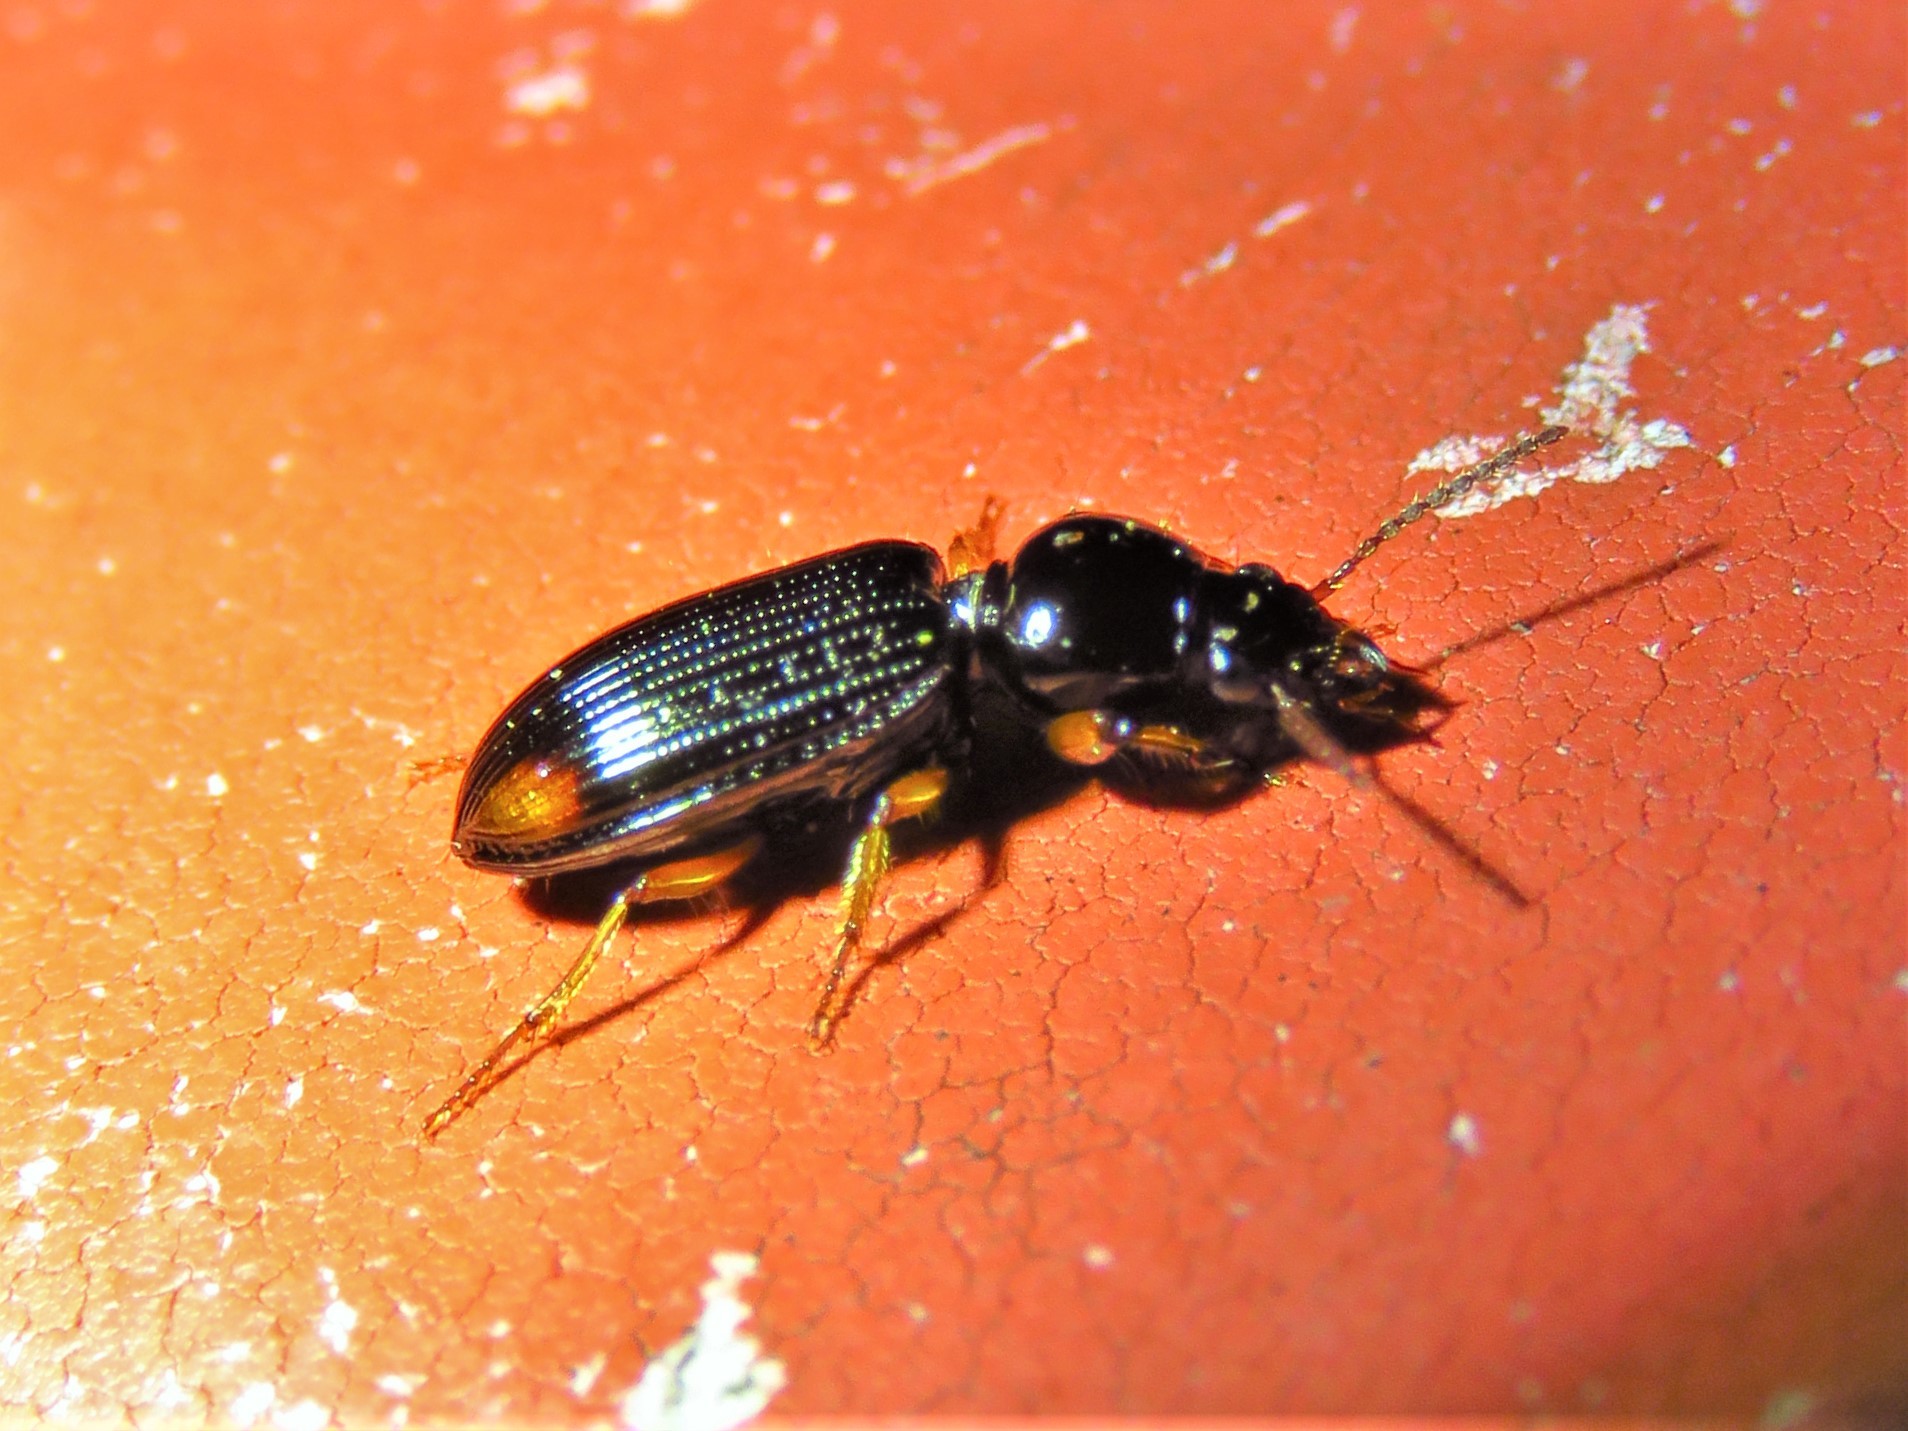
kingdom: Animalia
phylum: Arthropoda
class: Insecta
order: Coleoptera
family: Carabidae
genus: Aspidoglossa
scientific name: Aspidoglossa subangulata
